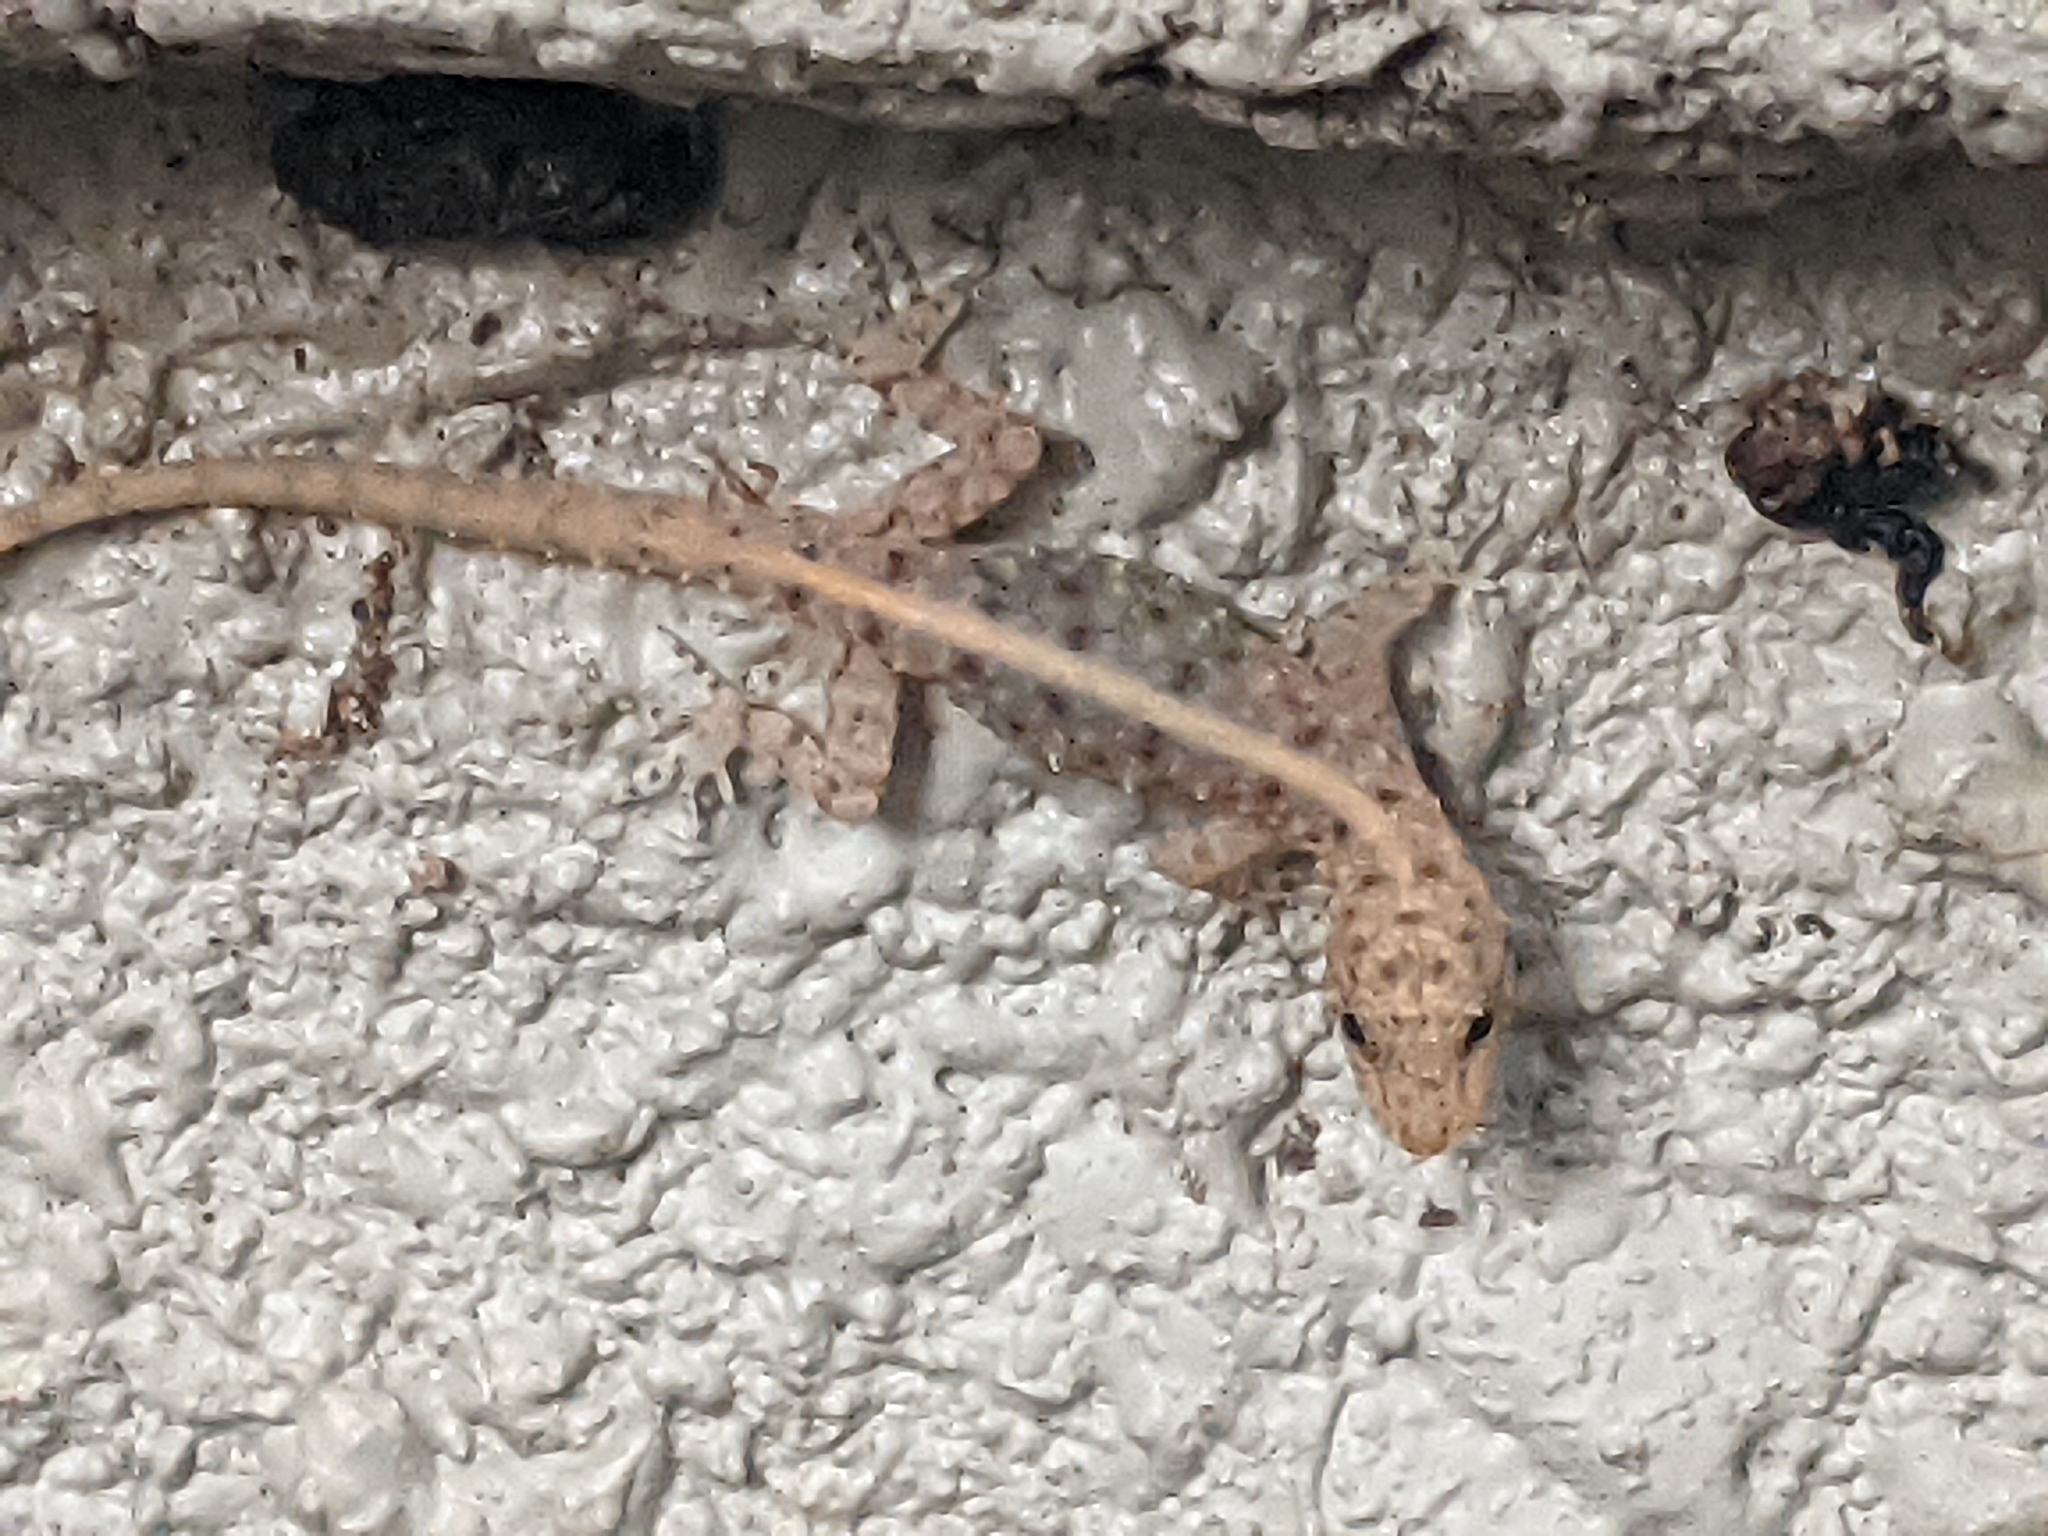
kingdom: Animalia
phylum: Chordata
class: Squamata
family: Gekkonidae
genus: Cnemaspis
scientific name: Cnemaspis mysoriensis
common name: Mysore day gecko
